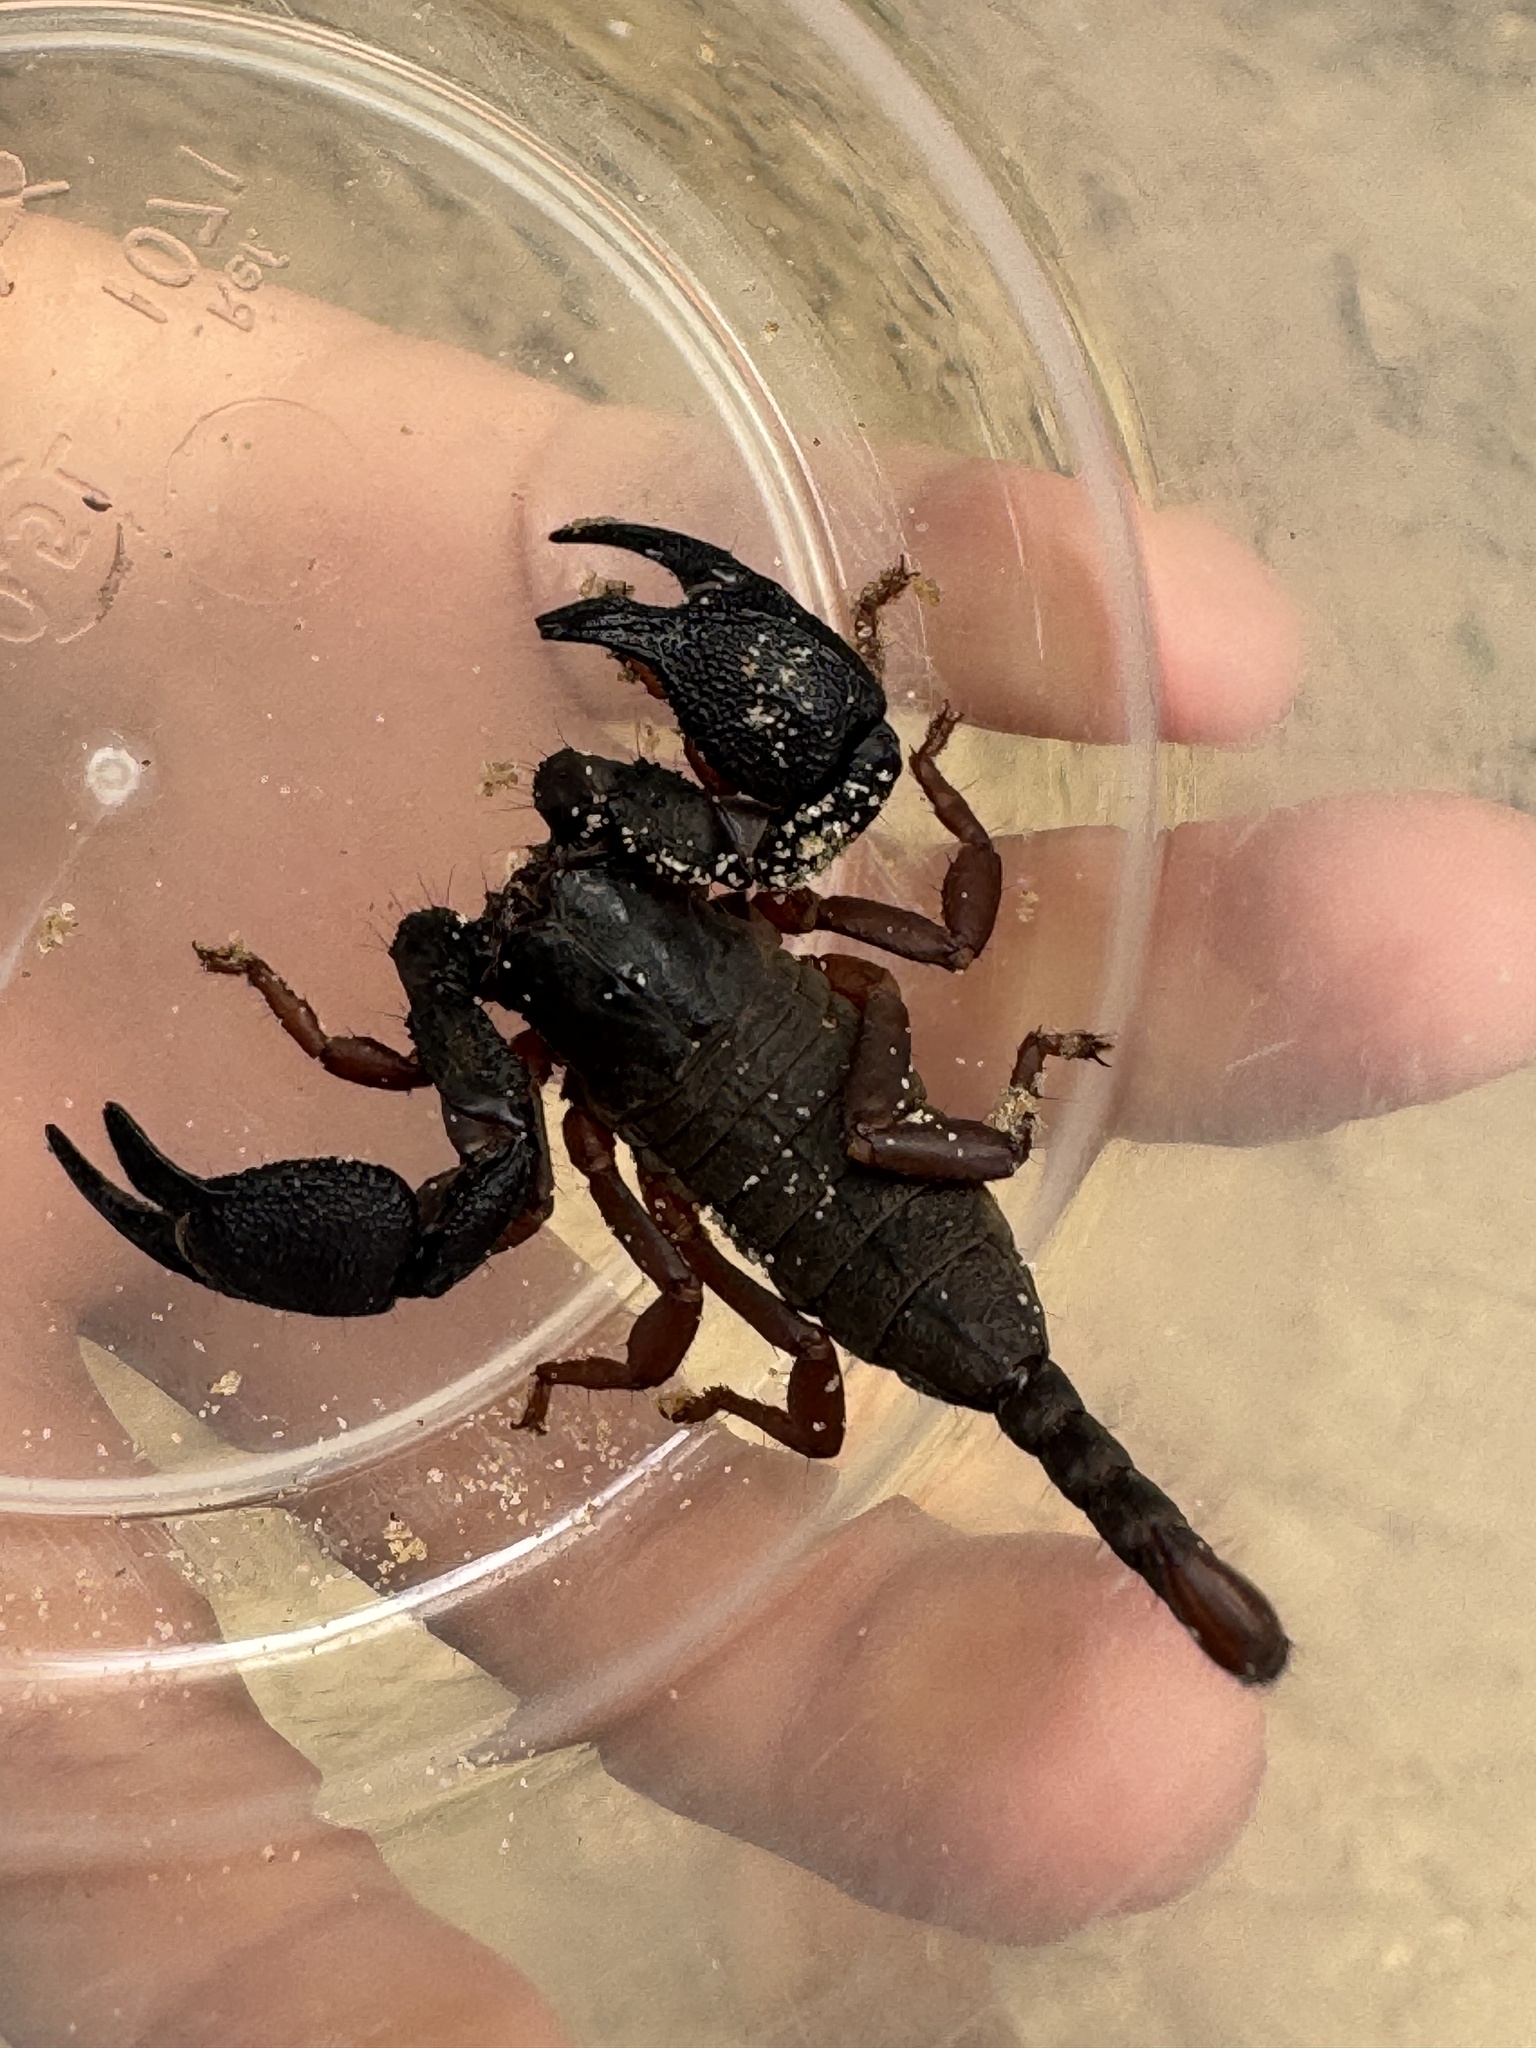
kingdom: Animalia
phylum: Arthropoda
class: Arachnida
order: Scorpiones
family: Hormuridae
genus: Opisthacanthus
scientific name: Opisthacanthus asper
